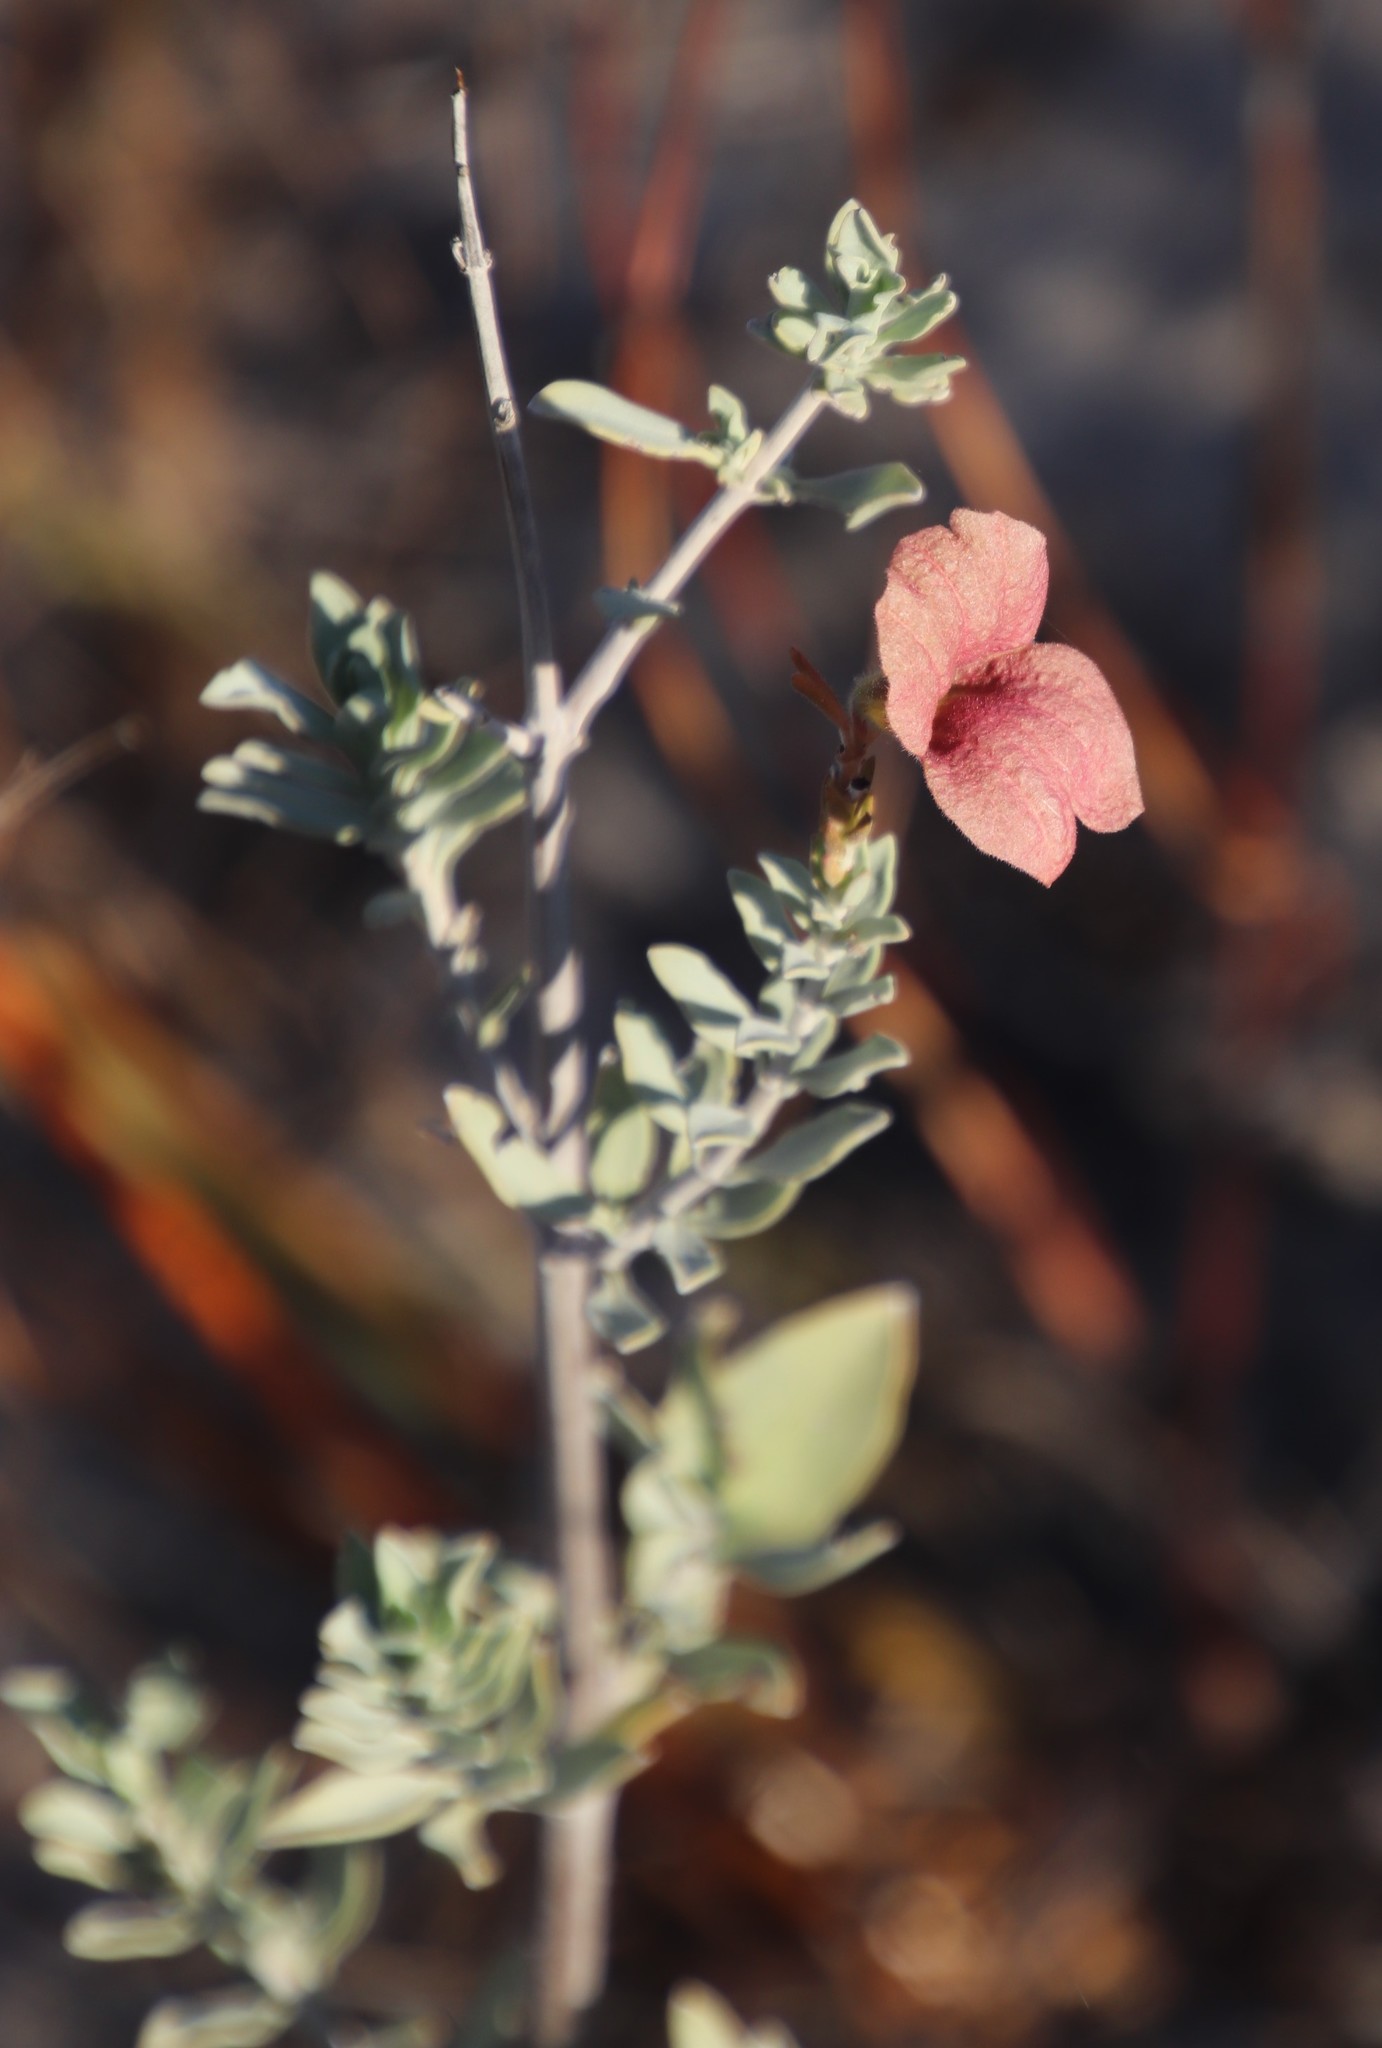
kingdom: Plantae
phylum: Tracheophyta
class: Magnoliopsida
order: Lamiales
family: Lamiaceae
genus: Salvia
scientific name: Salvia lanceolata
